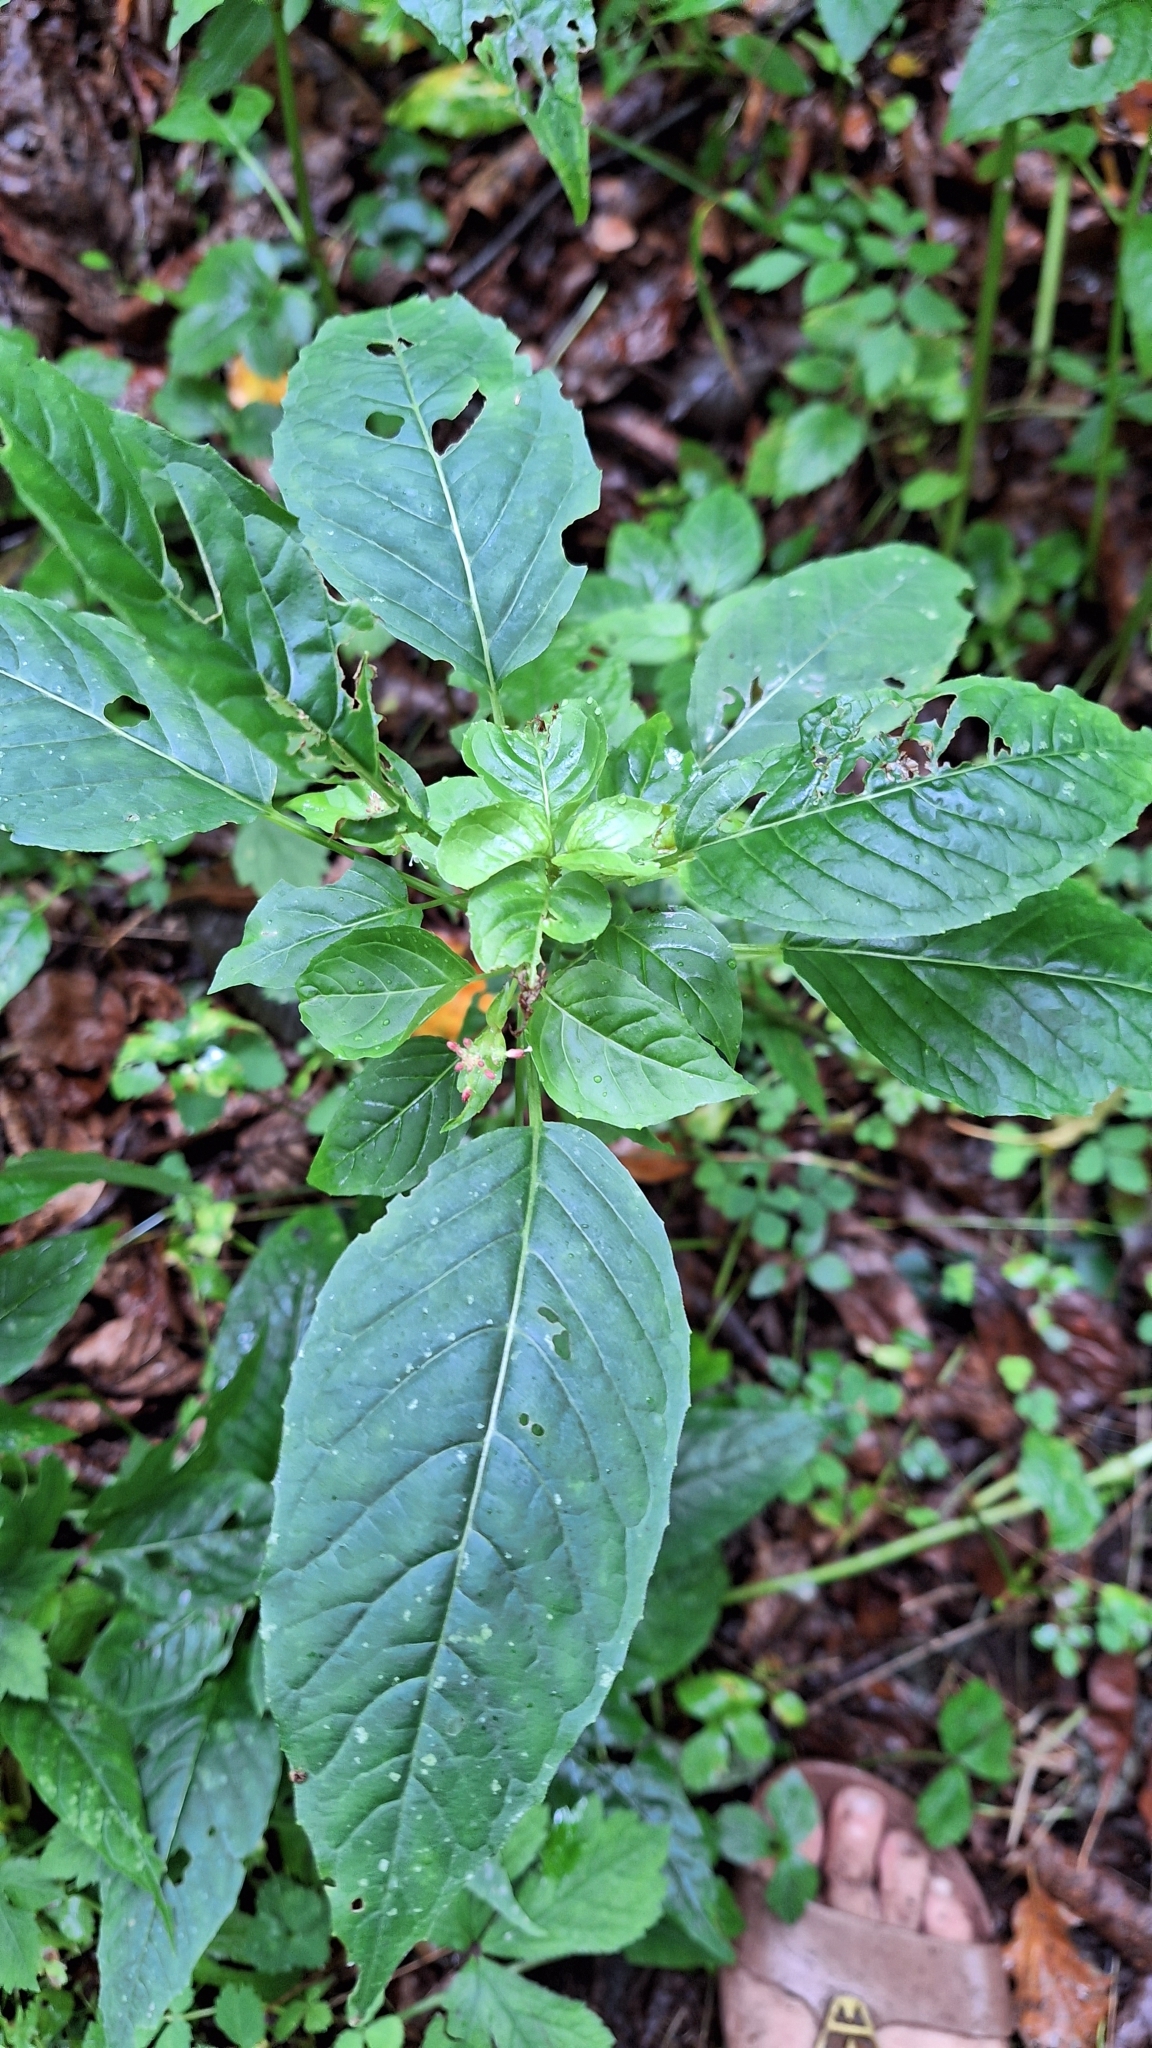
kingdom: Plantae
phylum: Tracheophyta
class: Magnoliopsida
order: Myrtales
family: Onagraceae
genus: Circaea
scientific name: Circaea canadensis
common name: Broad-leaved enchanter's nightshade
